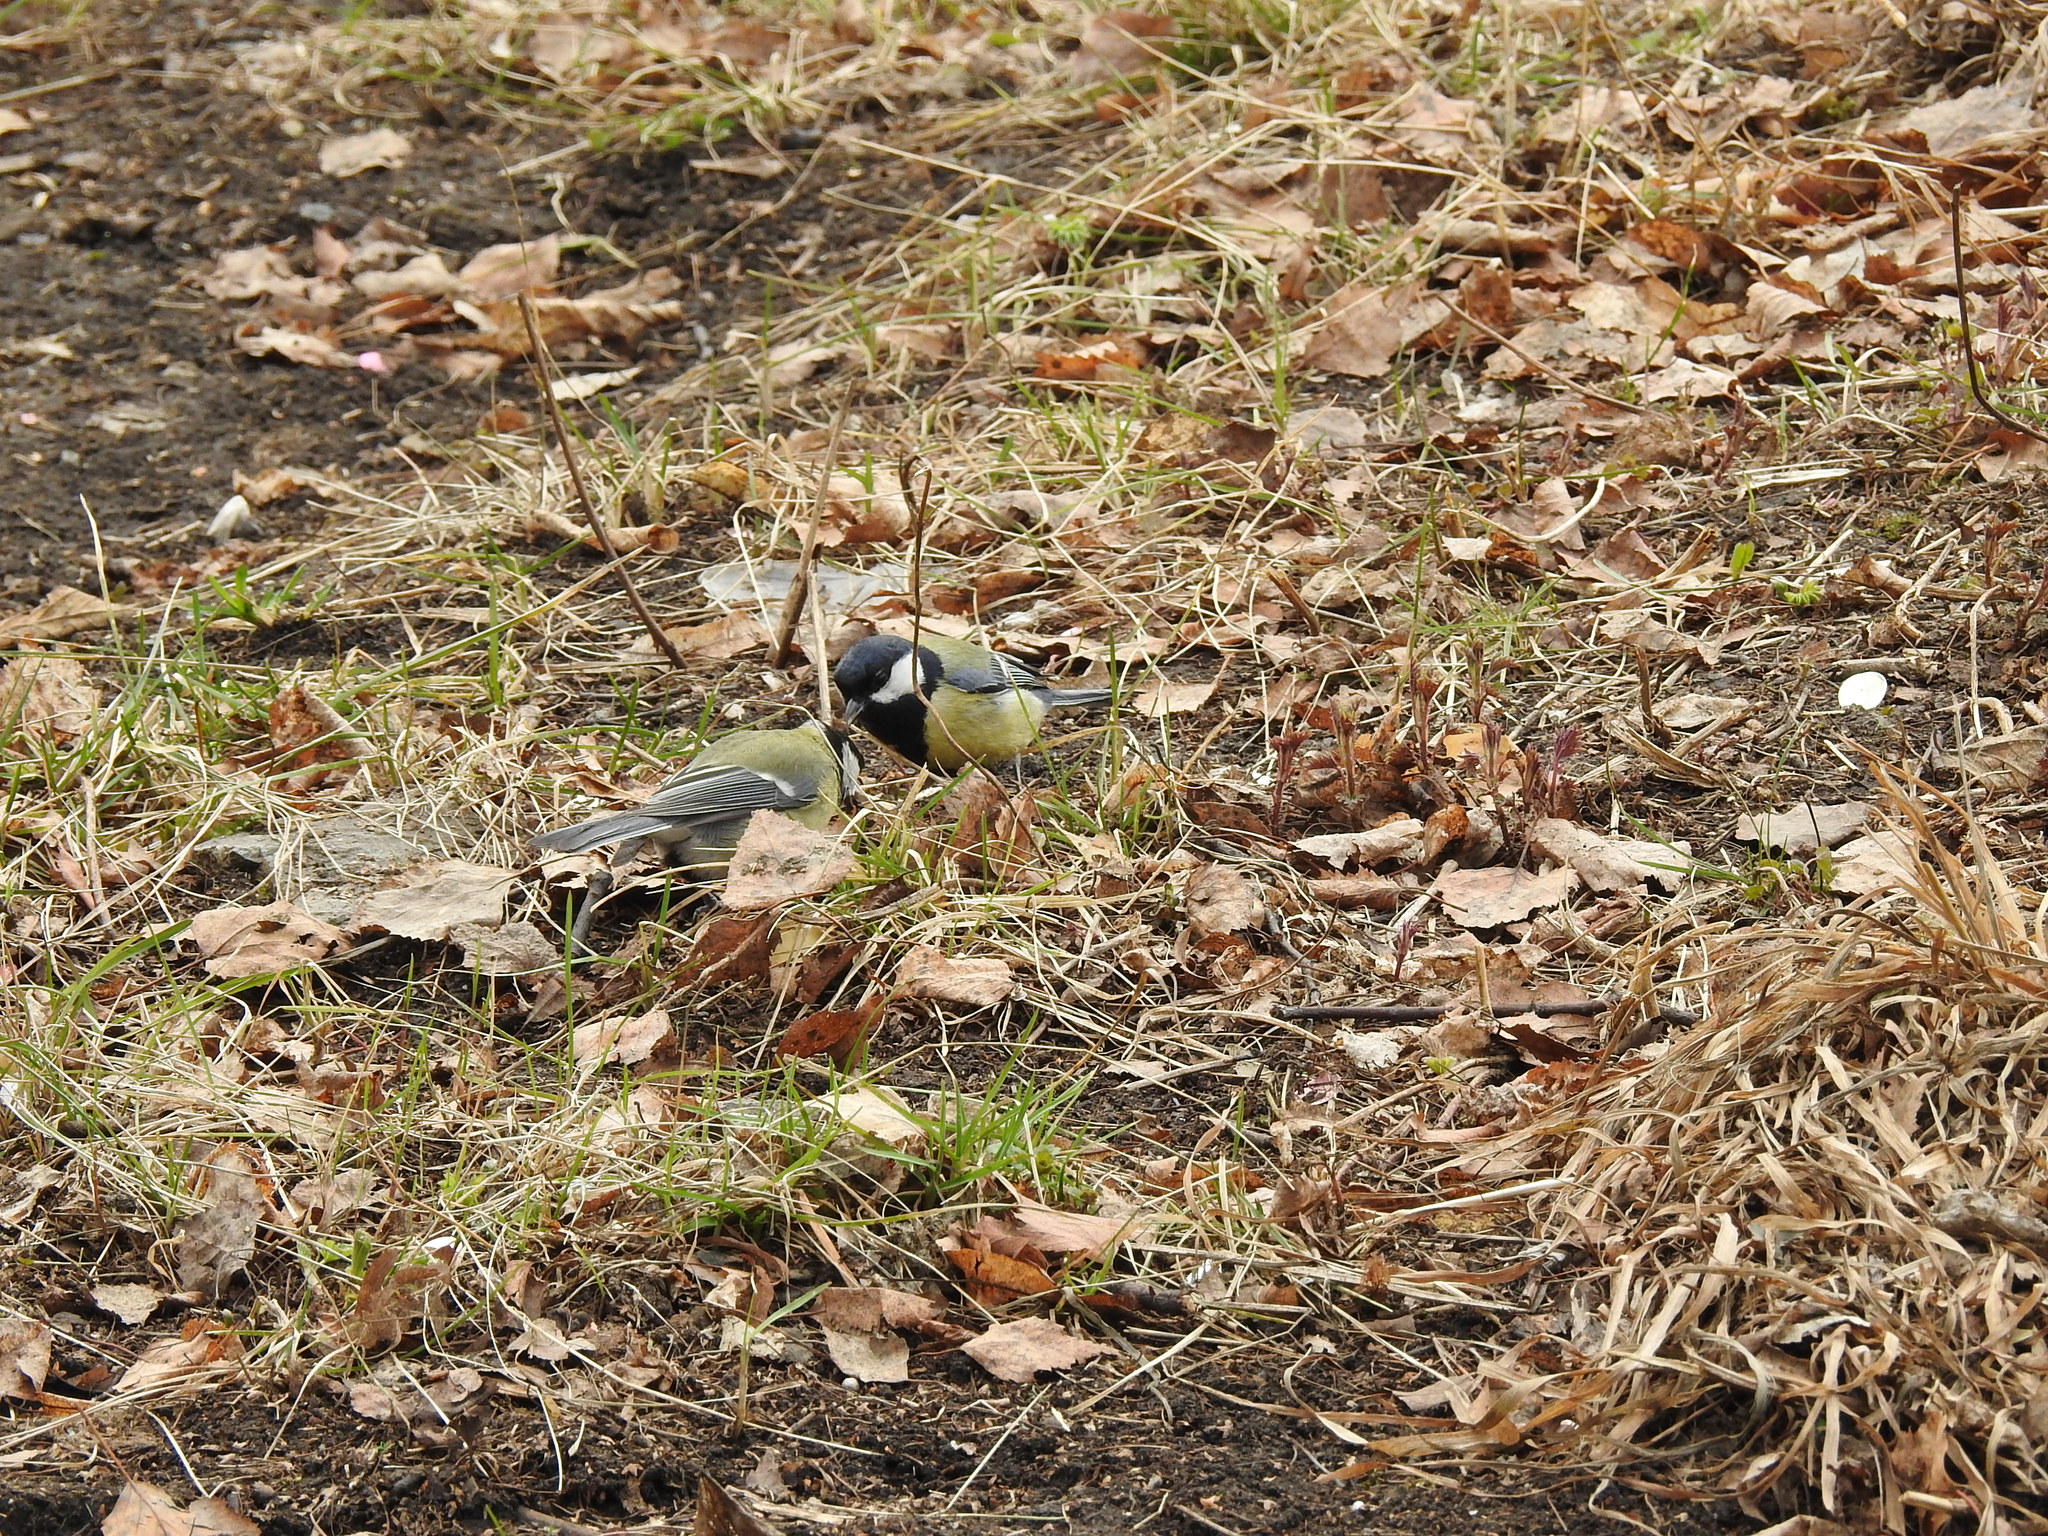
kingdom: Animalia
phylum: Chordata
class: Aves
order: Passeriformes
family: Paridae
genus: Parus
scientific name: Parus major
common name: Great tit
